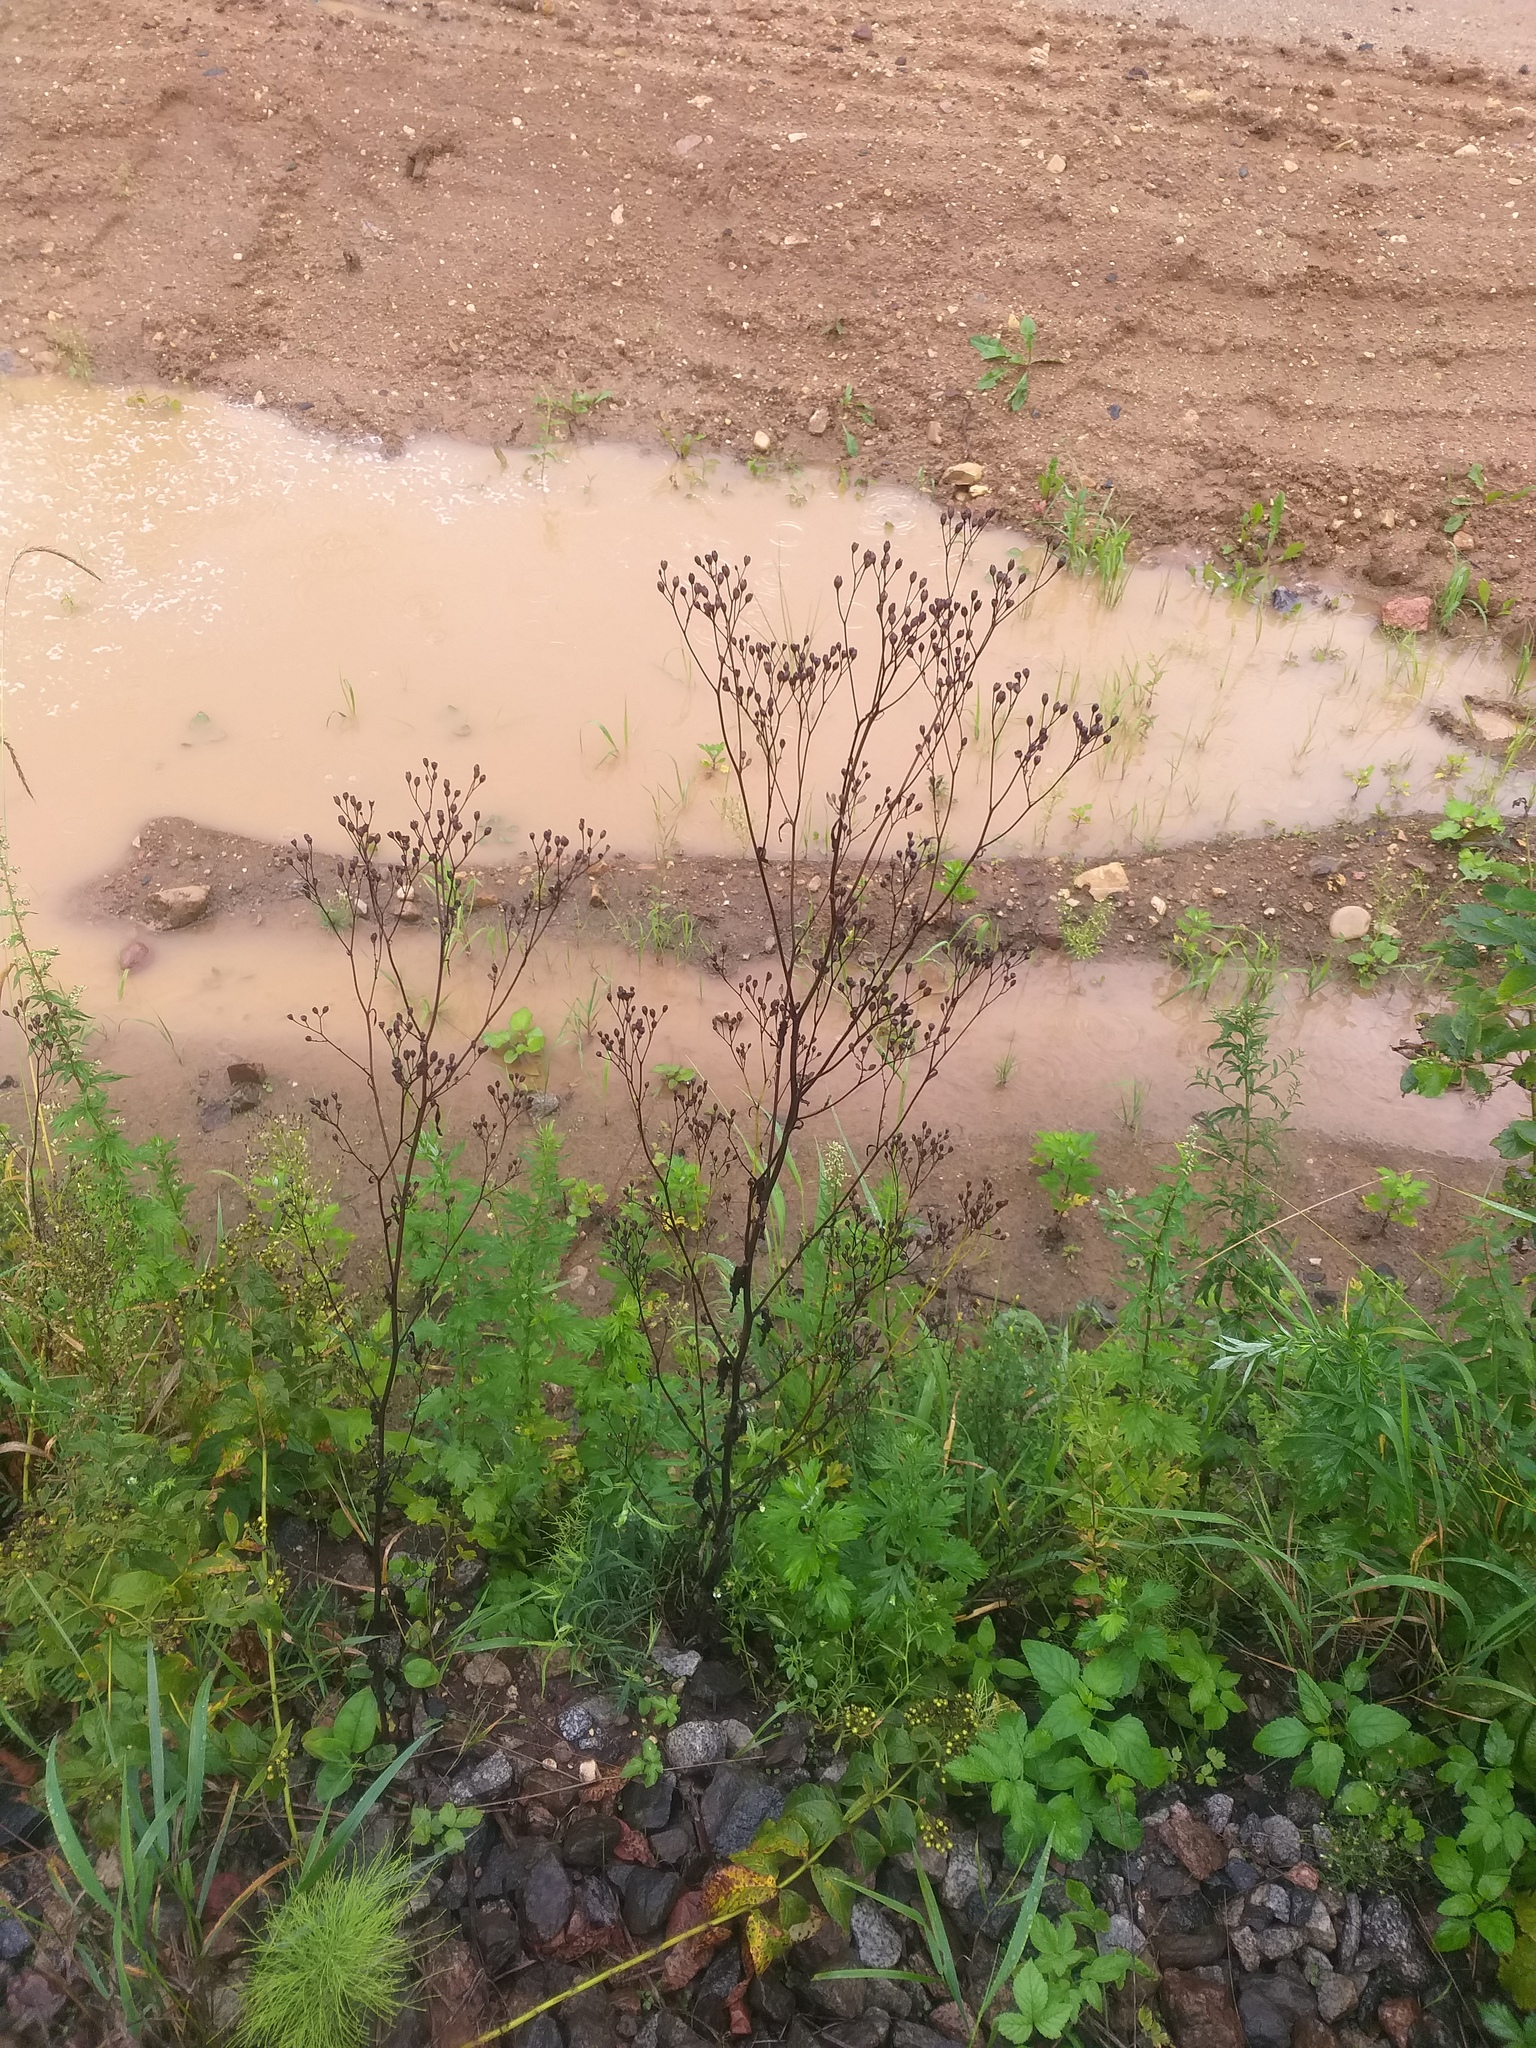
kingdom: Plantae
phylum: Tracheophyta
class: Magnoliopsida
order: Asterales
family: Asteraceae
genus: Lapsana
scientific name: Lapsana communis
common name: Nipplewort
